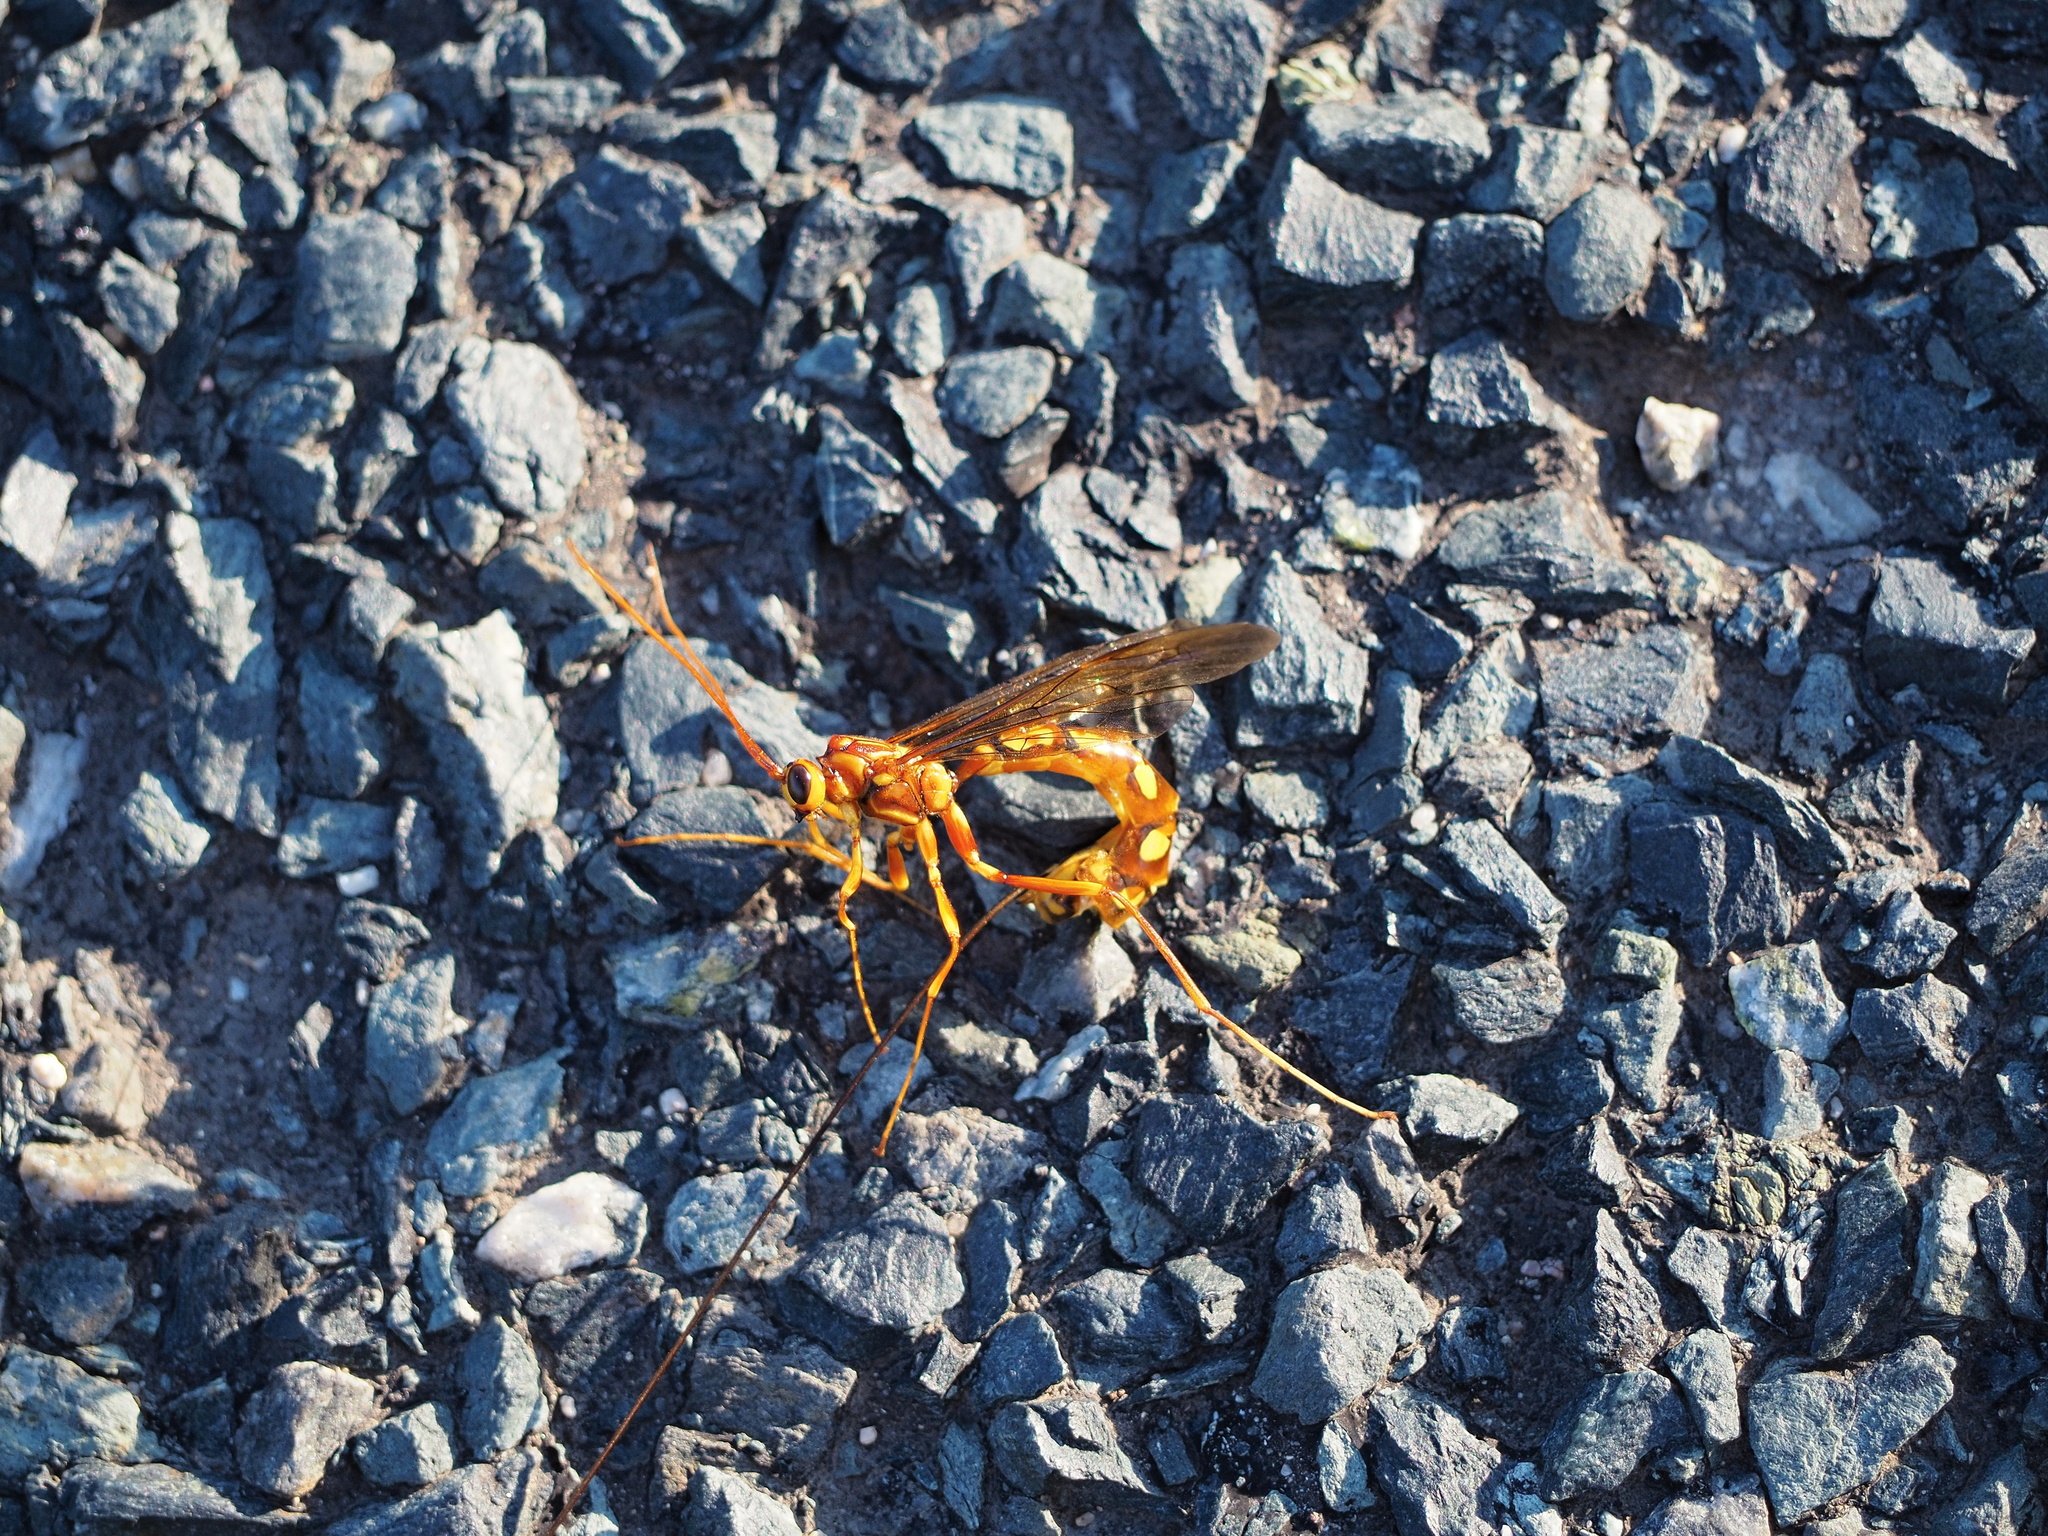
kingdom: Animalia
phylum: Arthropoda
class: Insecta
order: Hymenoptera
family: Ichneumonidae
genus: Megarhyssa
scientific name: Megarhyssa perlata
